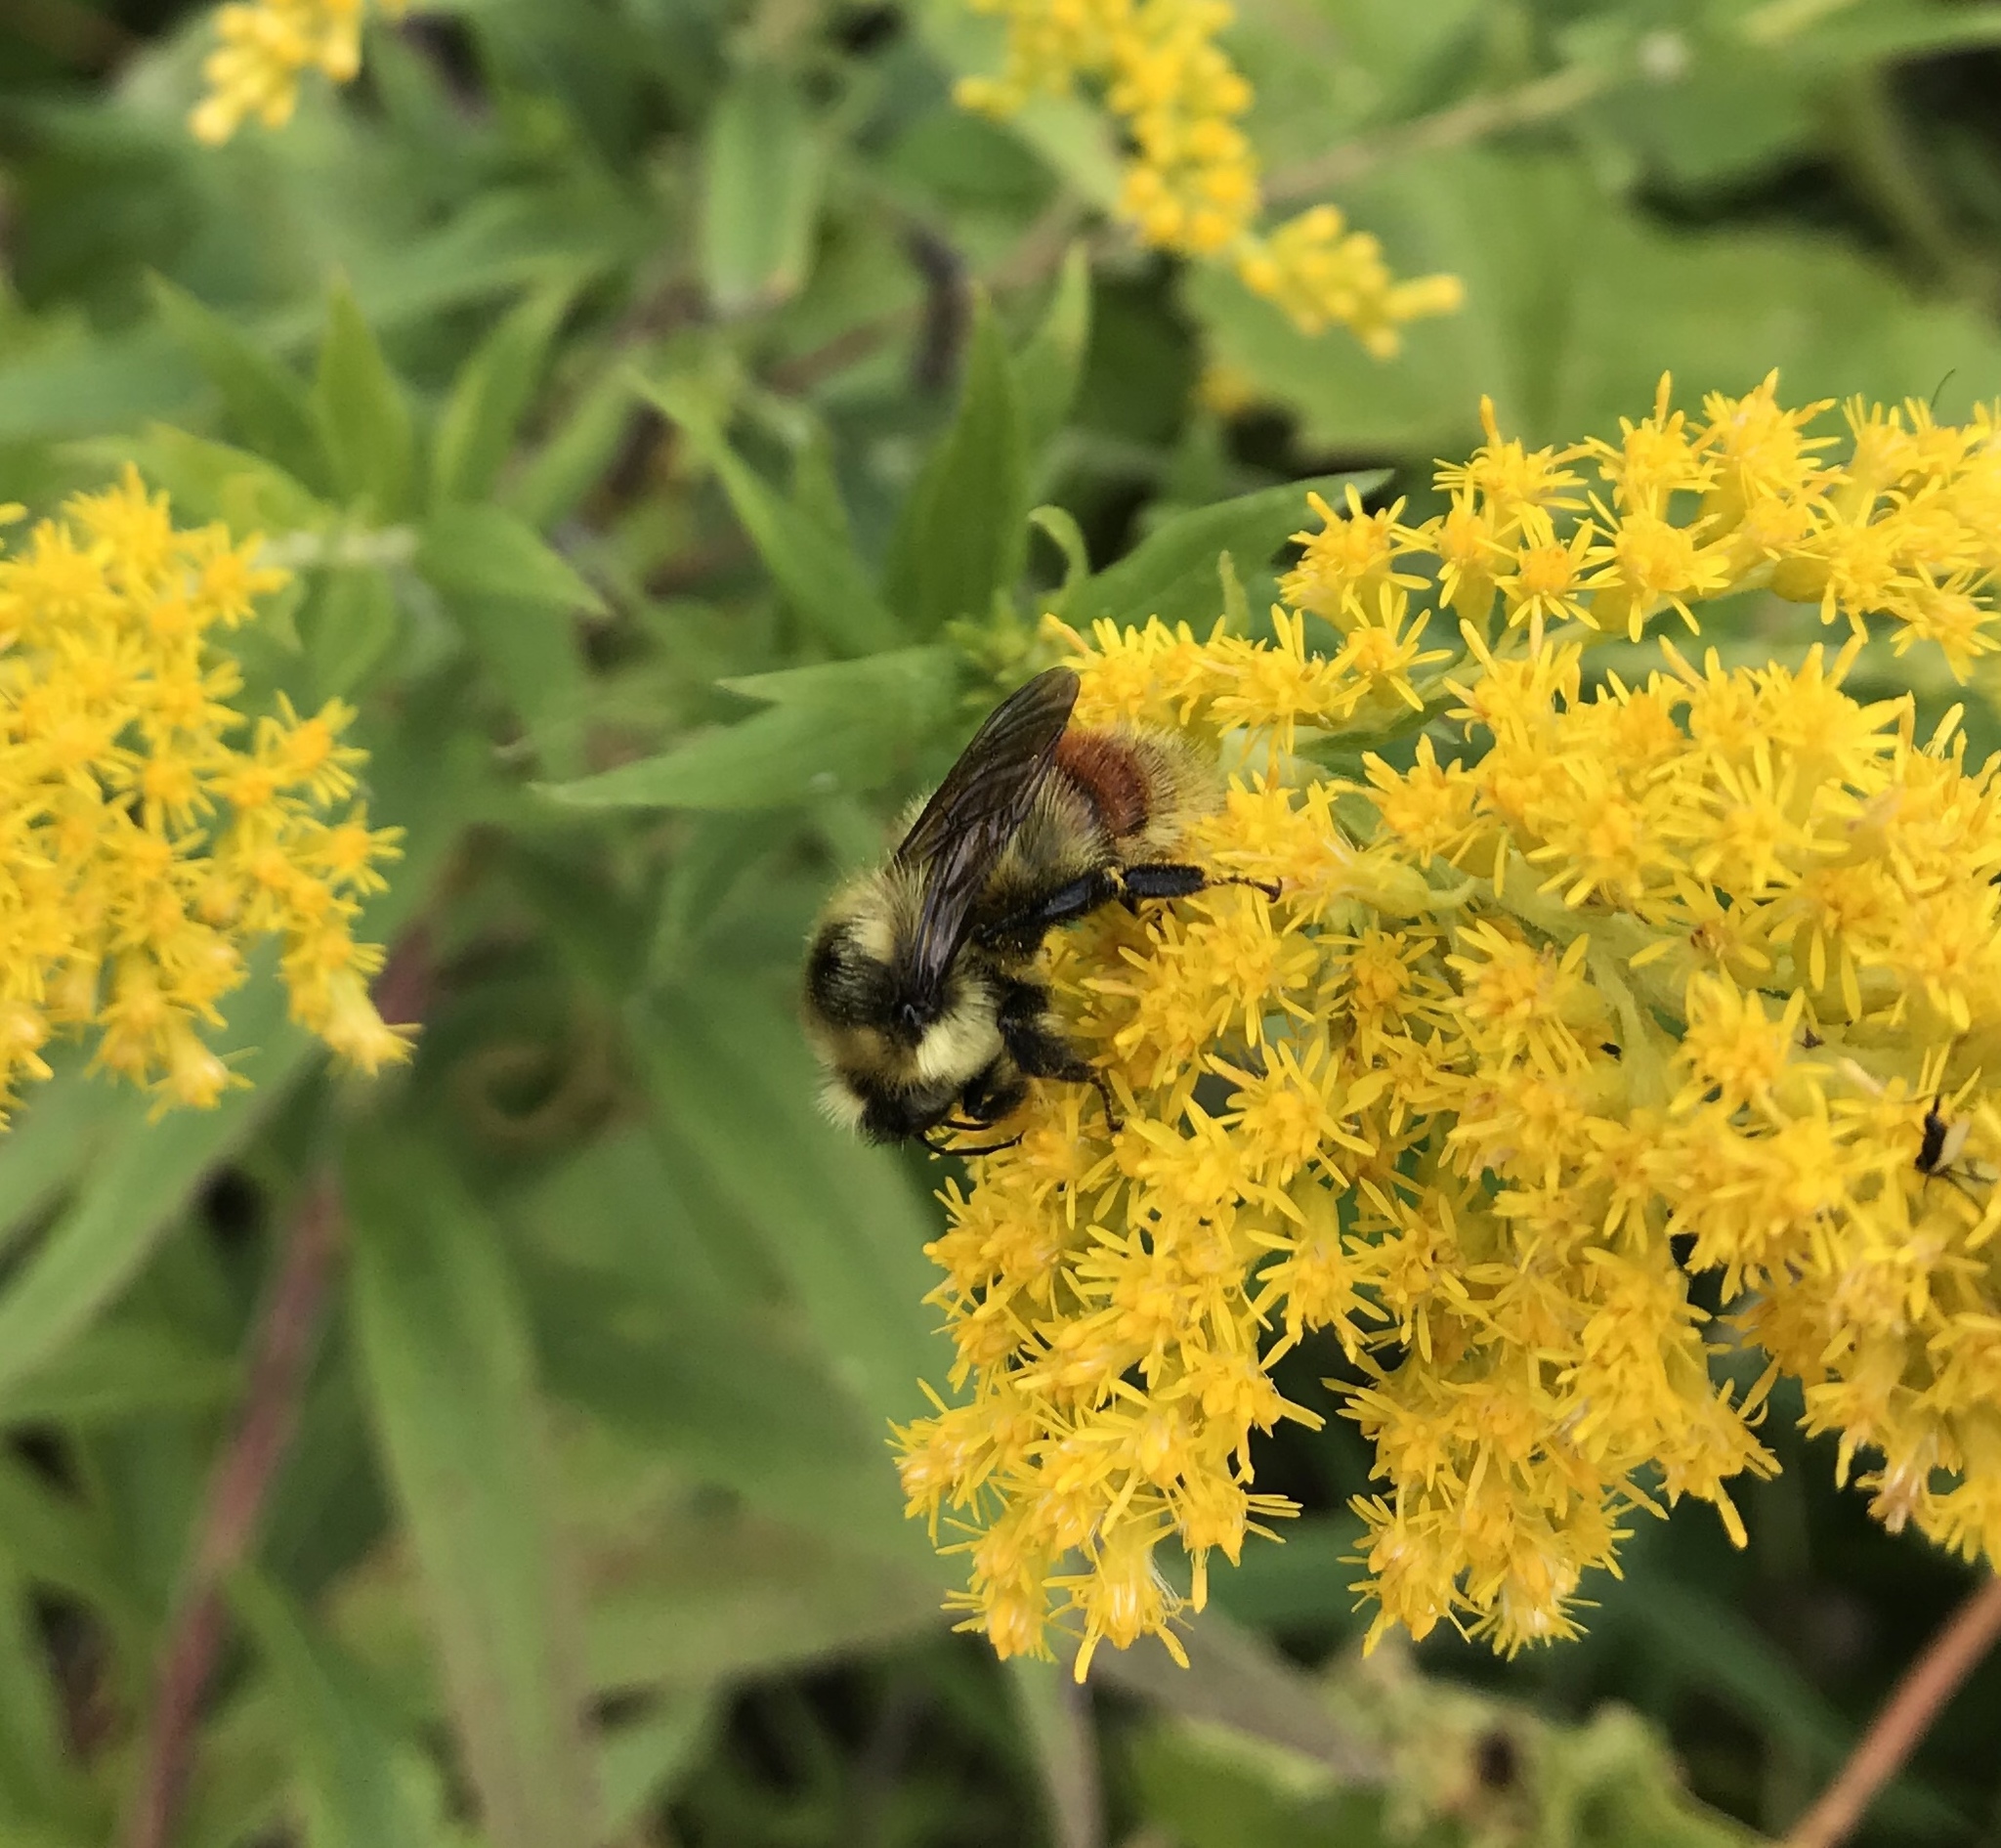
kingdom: Animalia
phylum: Arthropoda
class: Insecta
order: Hymenoptera
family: Apidae
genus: Bombus
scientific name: Bombus rufocinctus
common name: Red-belted bumble bee
